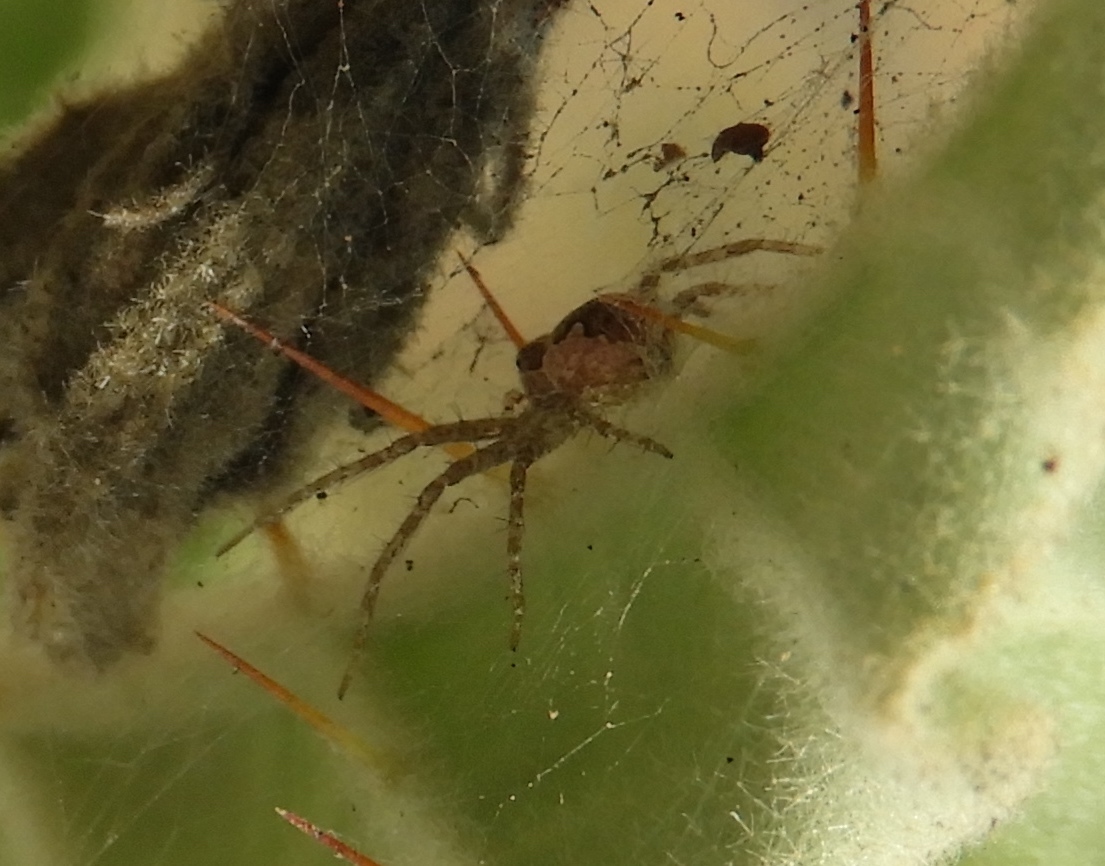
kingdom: Animalia
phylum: Arthropoda
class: Arachnida
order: Araneae
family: Pisauridae
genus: Tinus
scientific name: Tinus
